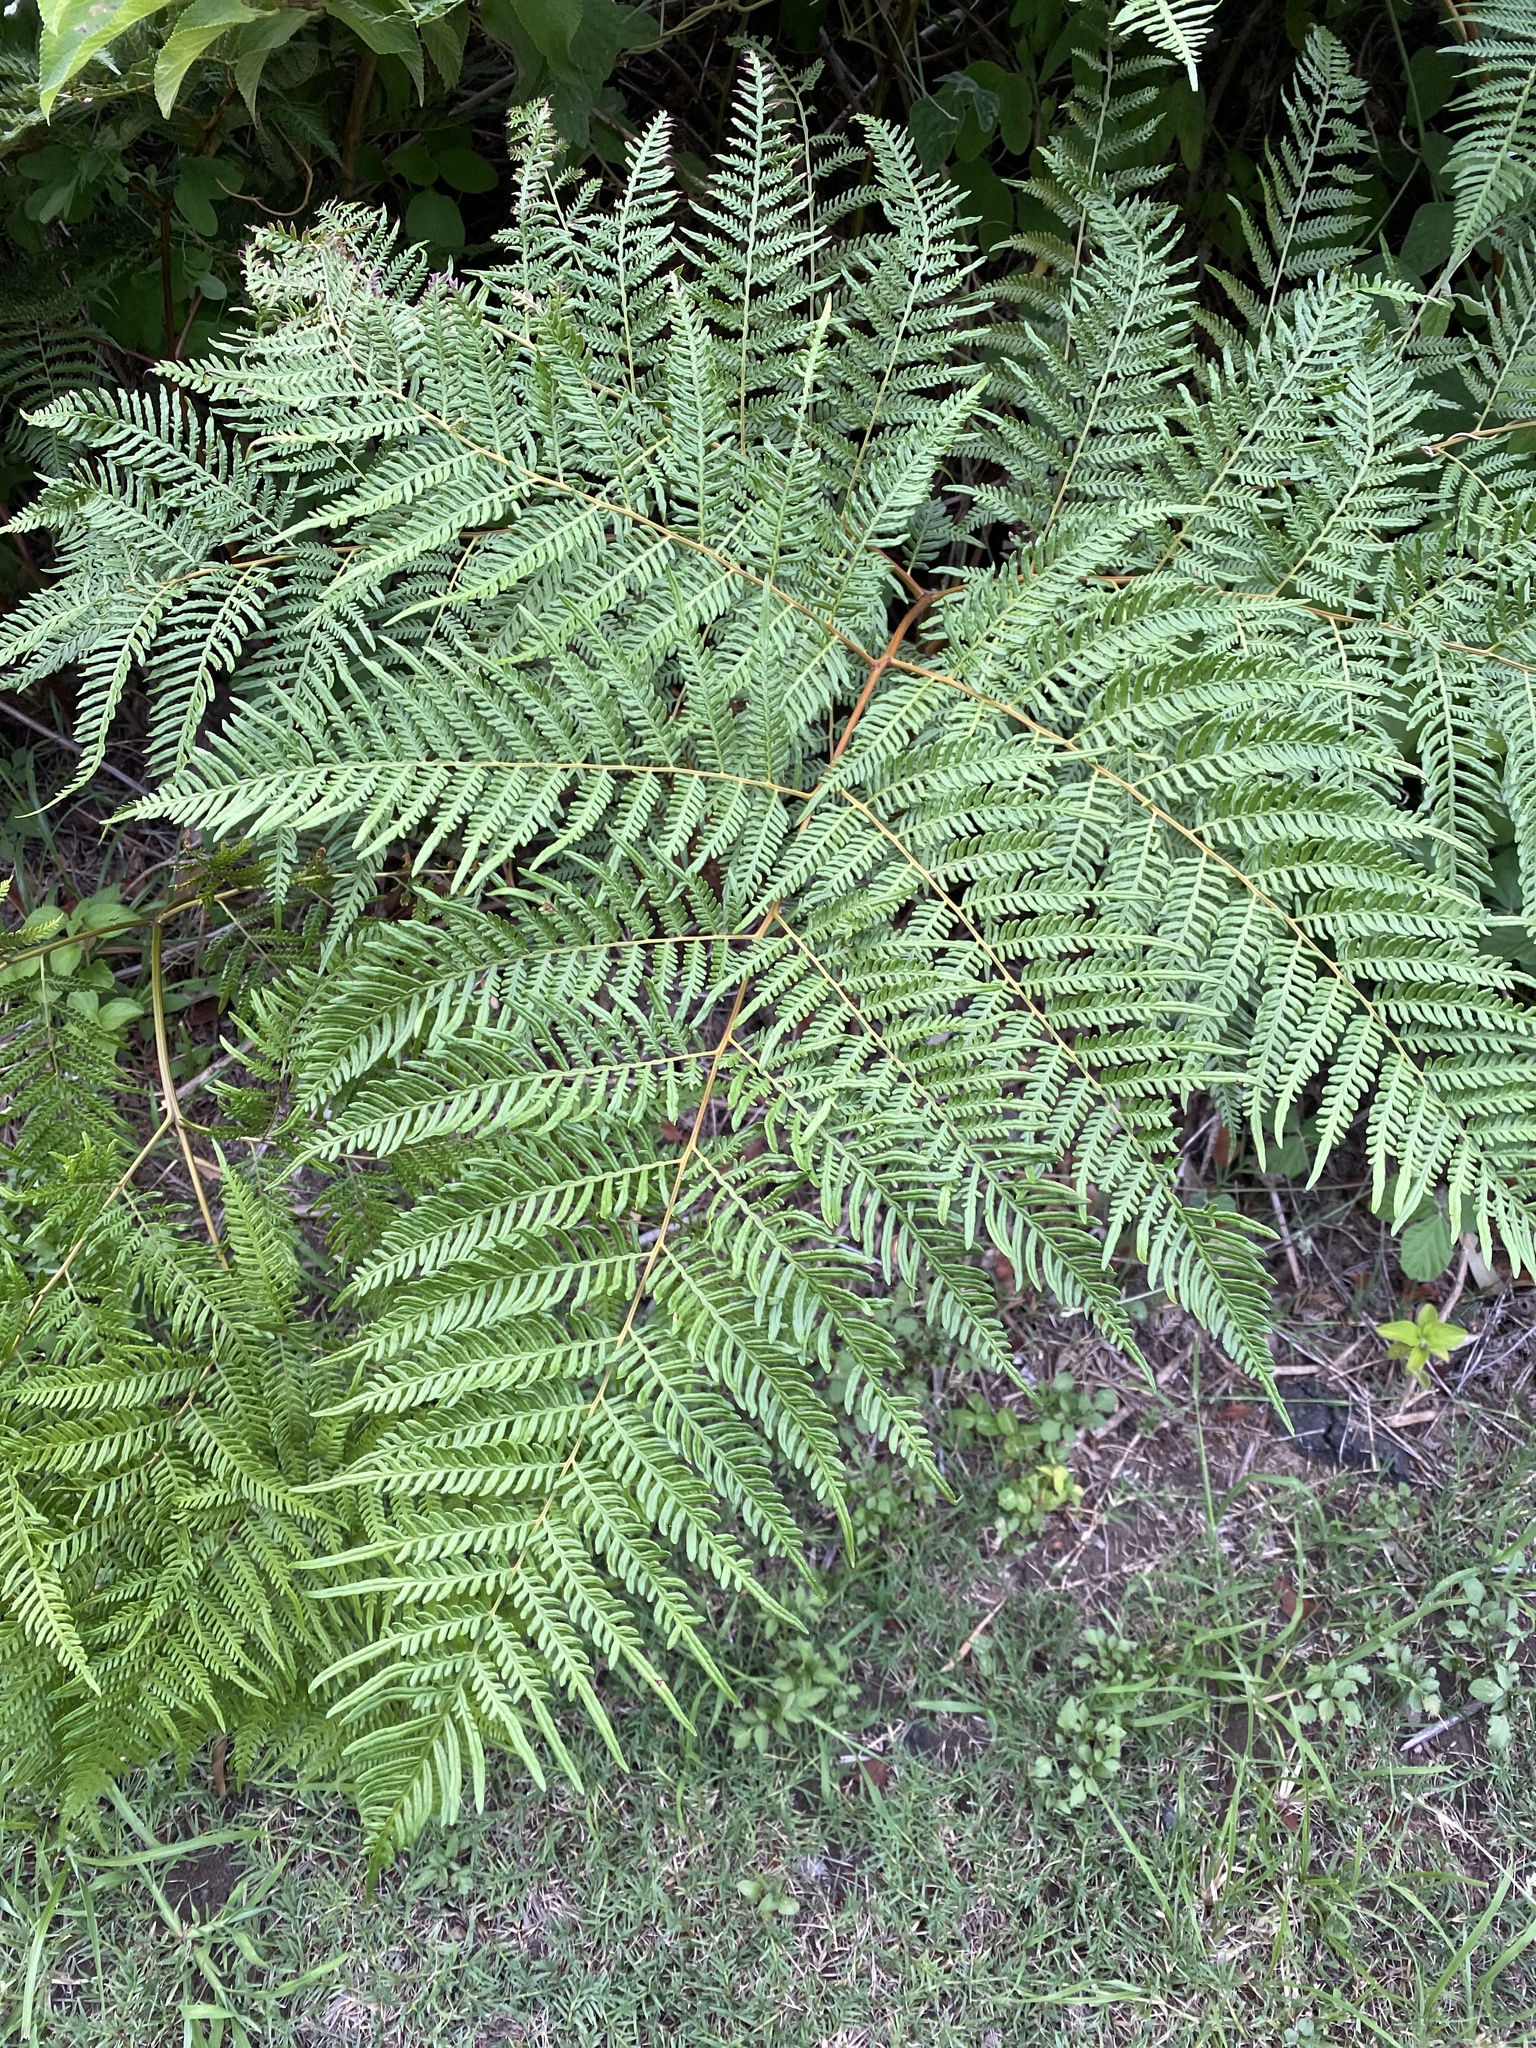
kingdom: Plantae
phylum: Tracheophyta
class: Polypodiopsida
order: Polypodiales
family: Dennstaedtiaceae
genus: Pteridium
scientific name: Pteridium esculentum
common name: Bracken fern
